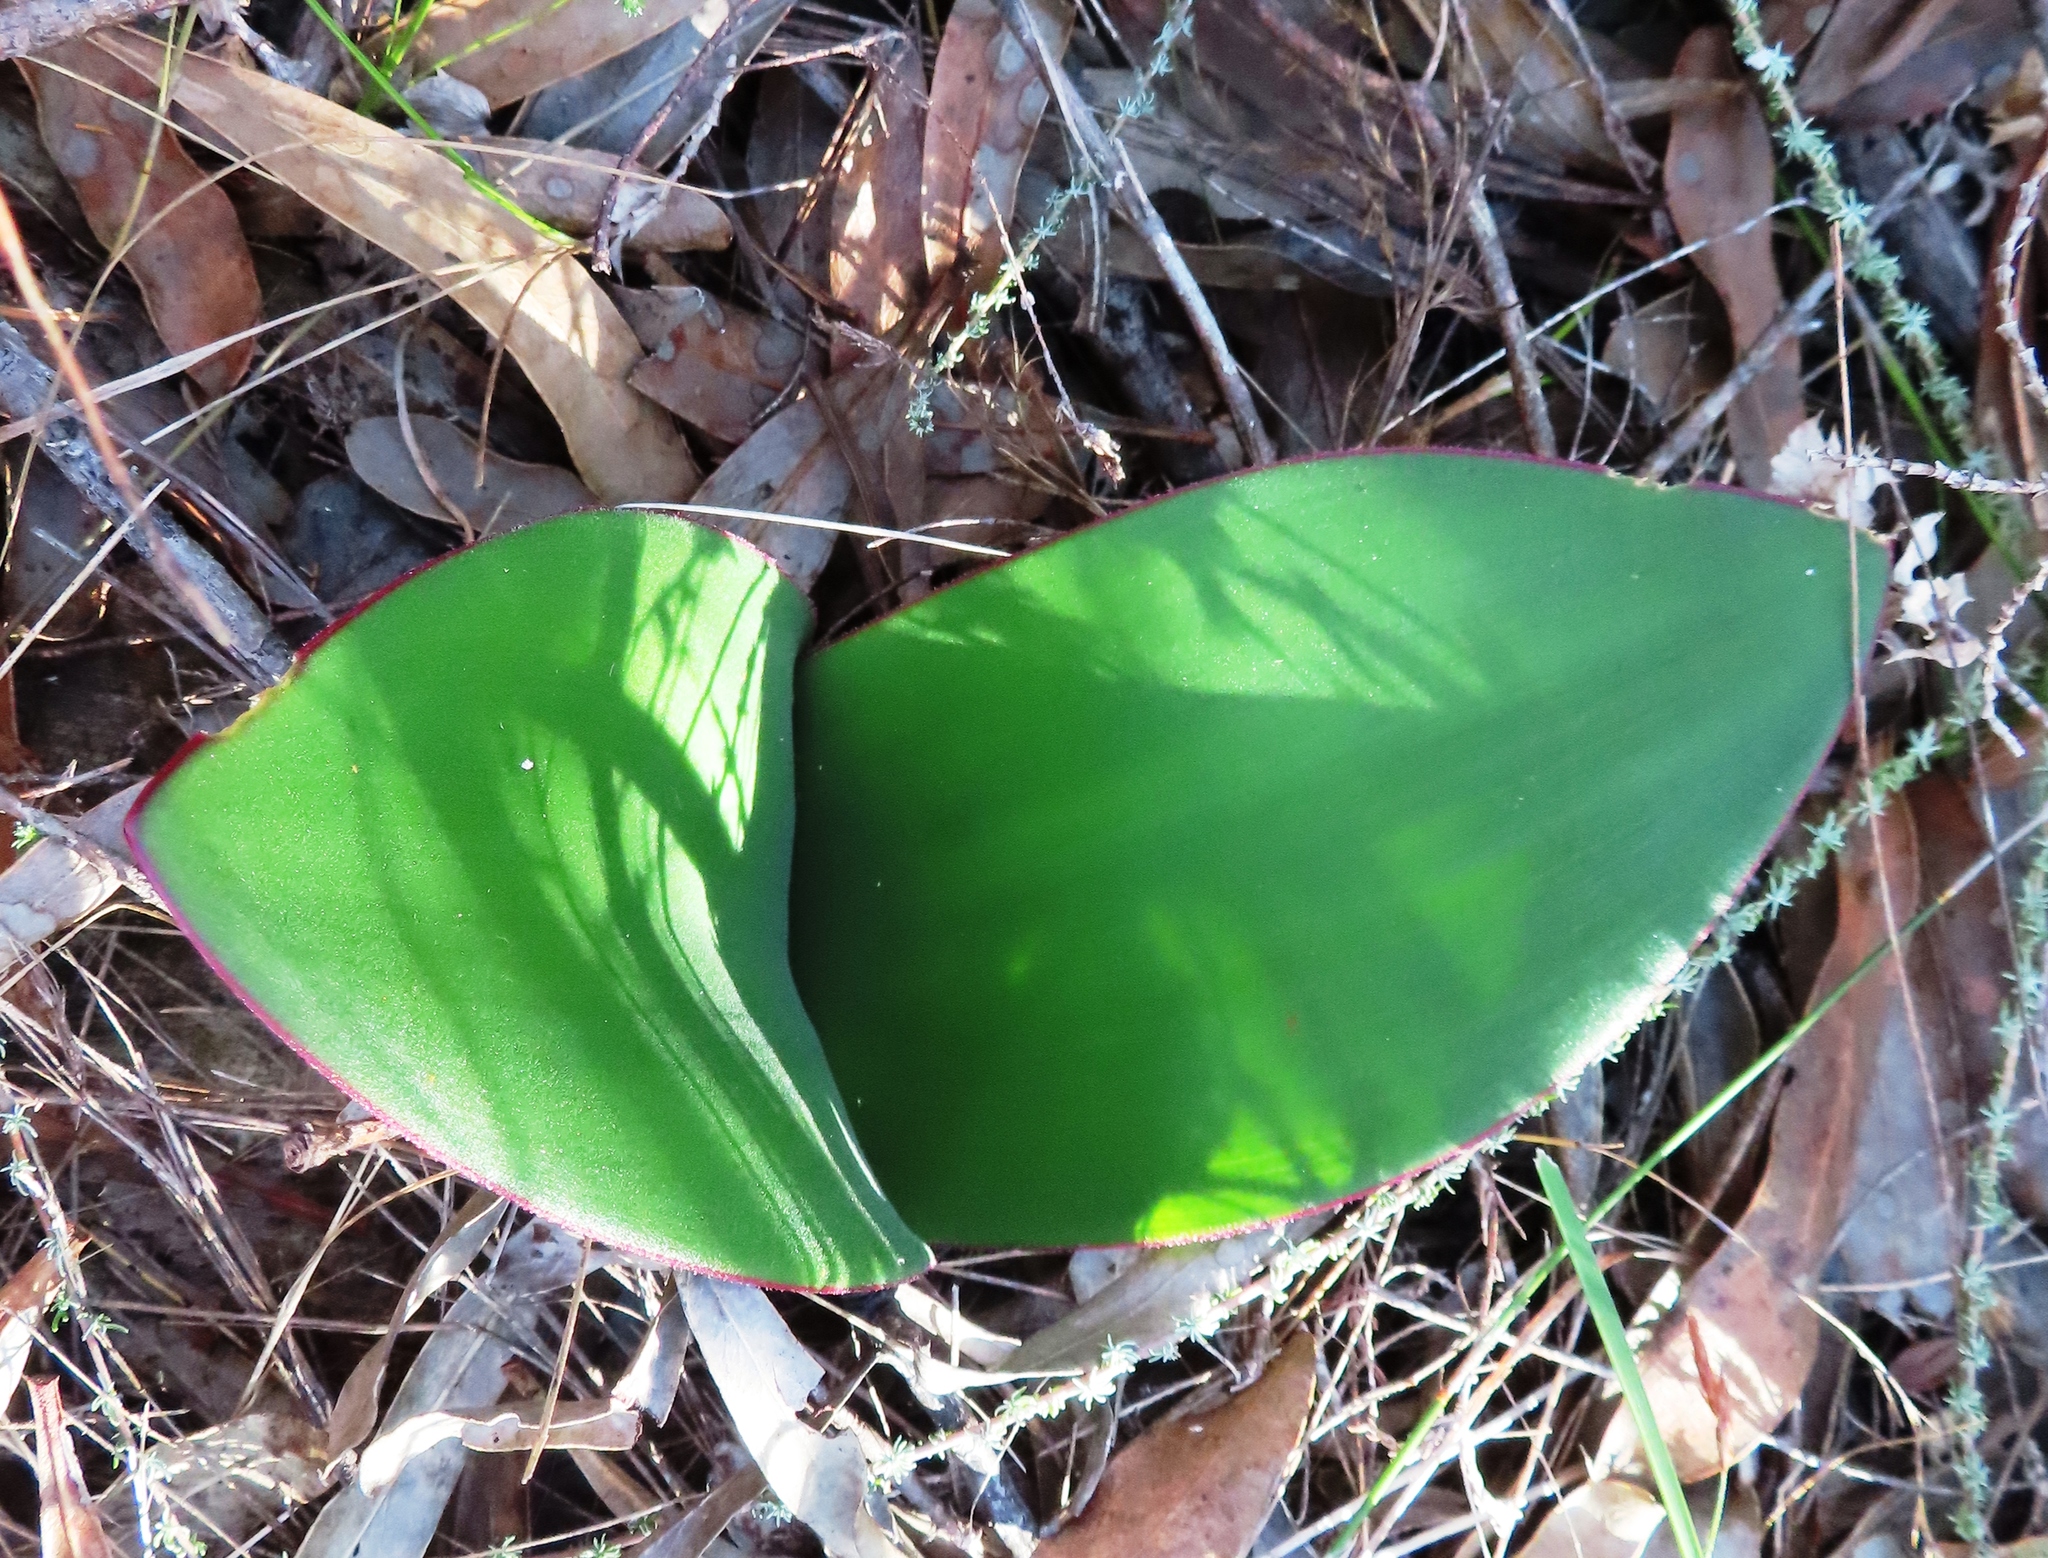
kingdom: Plantae
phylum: Tracheophyta
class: Liliopsida
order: Asparagales
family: Amaryllidaceae
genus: Haemanthus
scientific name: Haemanthus sanguineus
